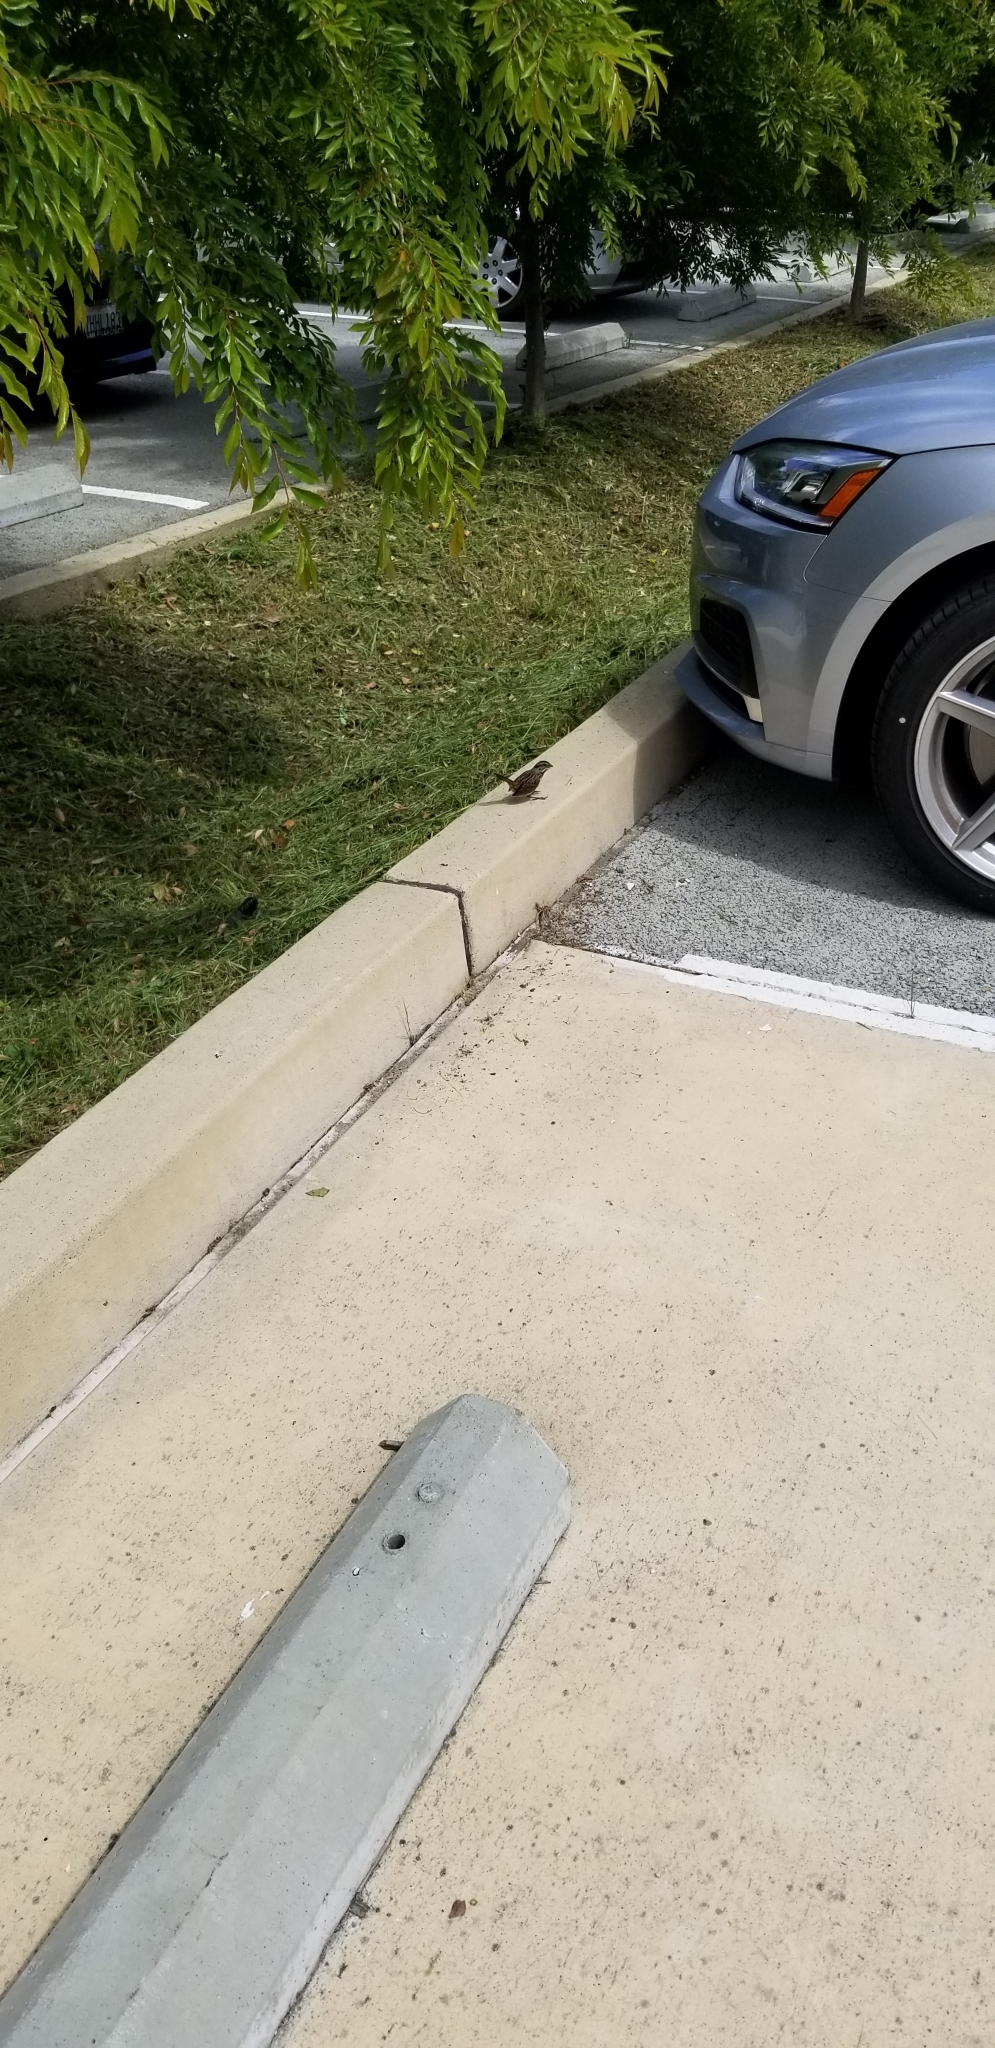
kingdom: Animalia
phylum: Chordata
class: Aves
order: Passeriformes
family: Passerellidae
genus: Melospiza
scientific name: Melospiza melodia
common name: Song sparrow
